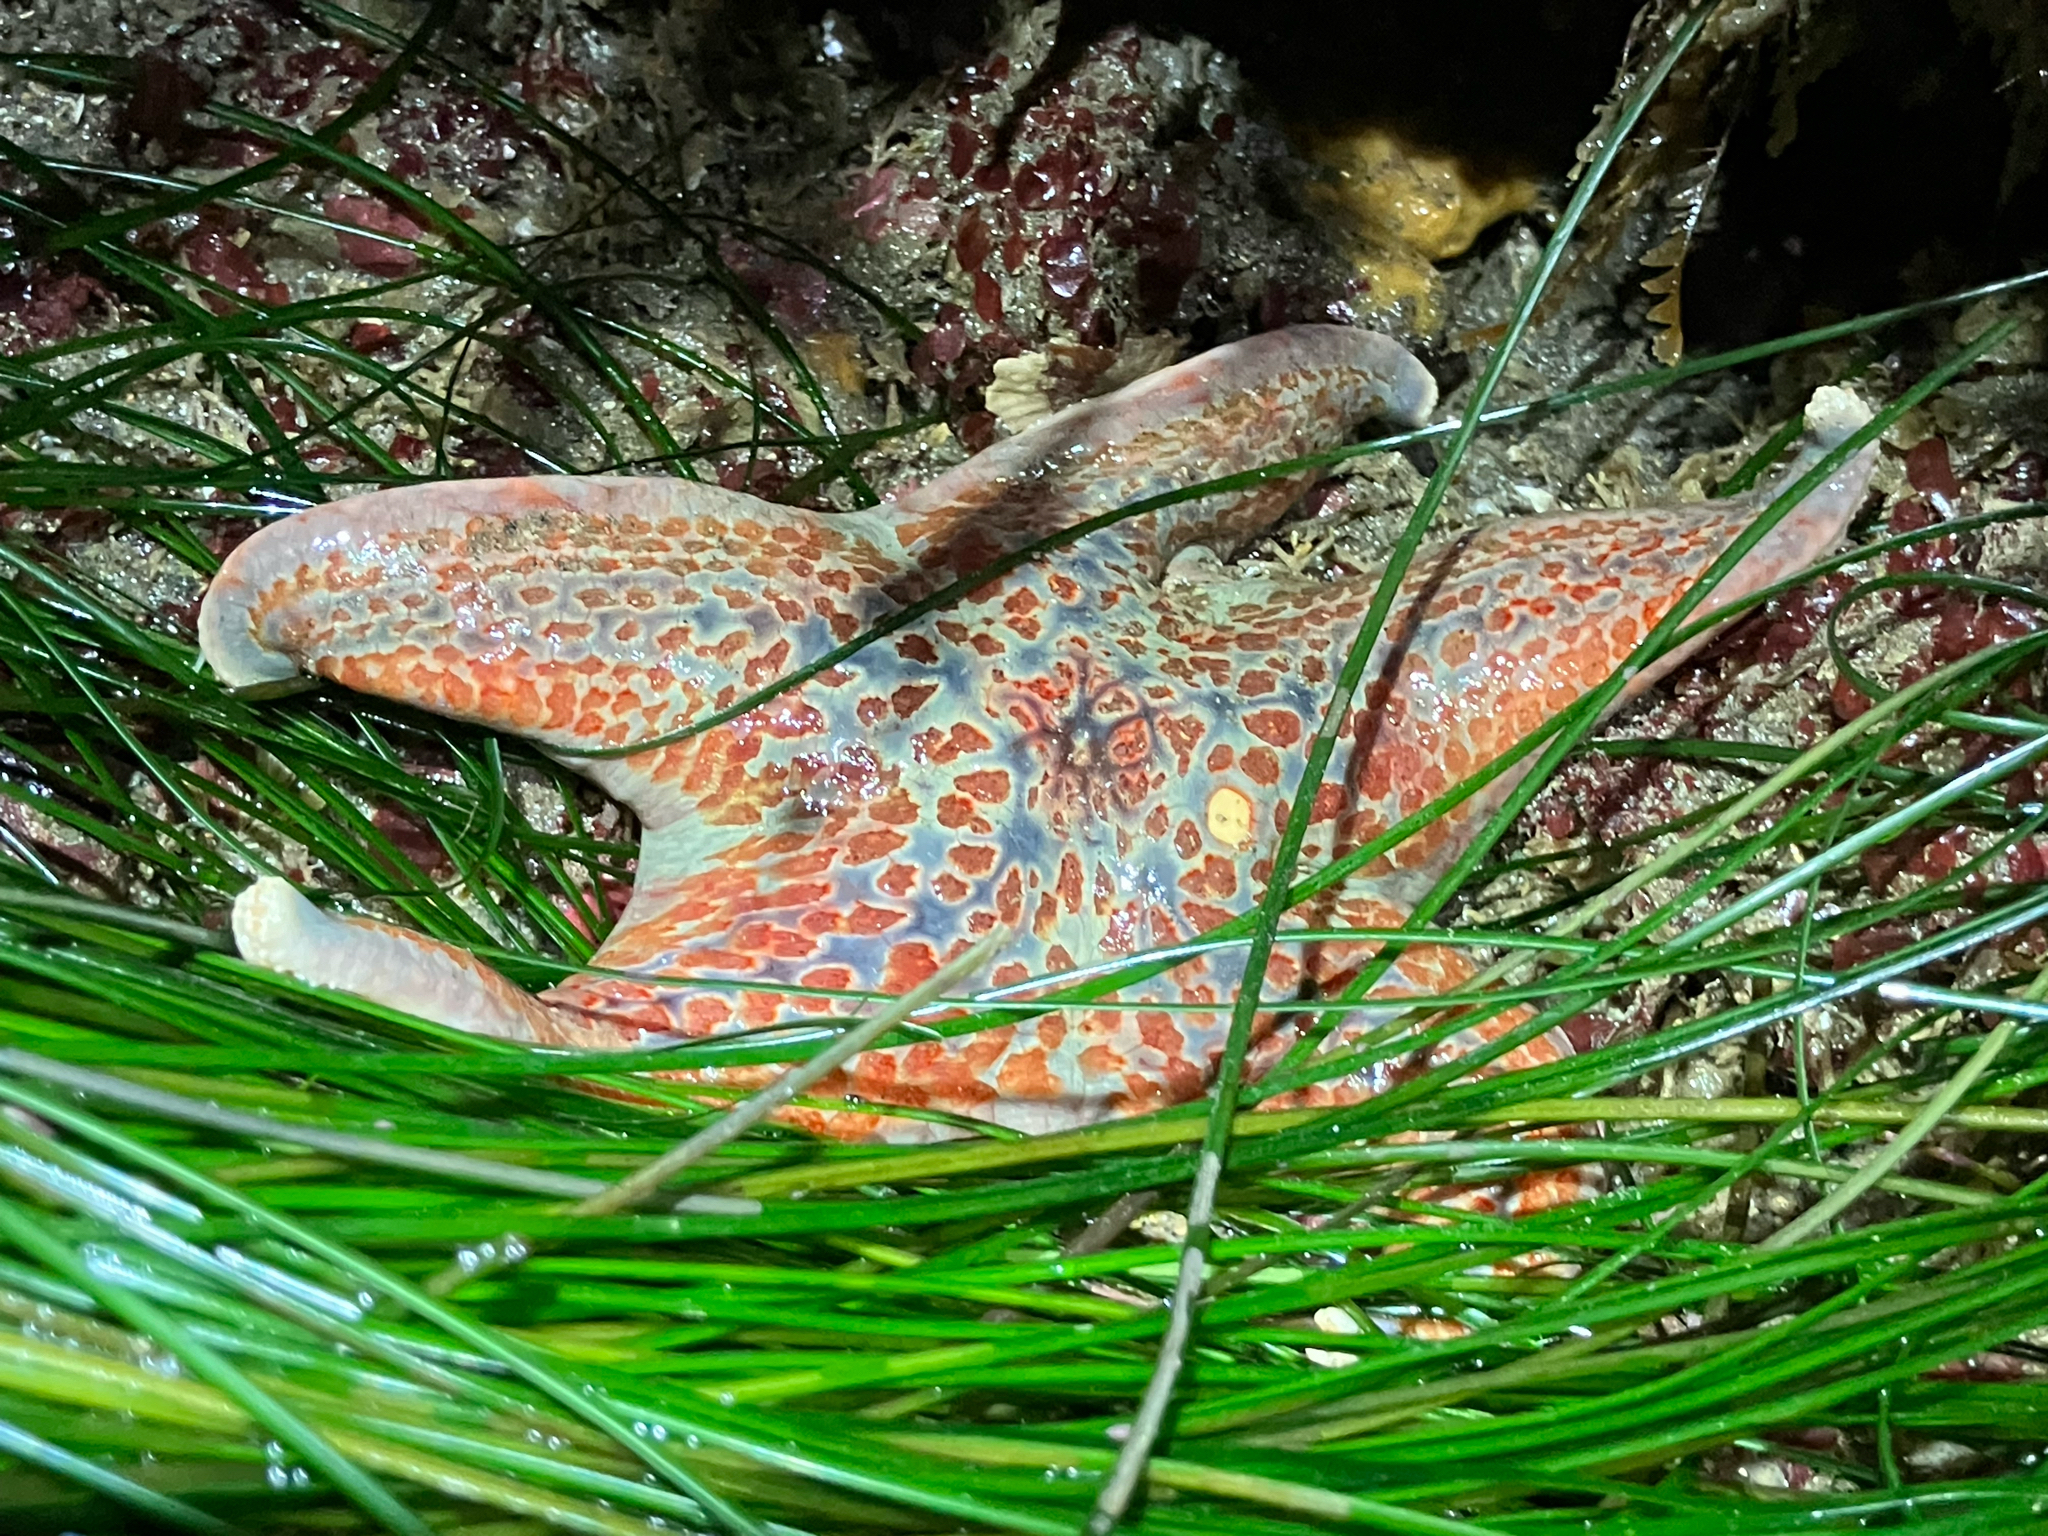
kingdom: Animalia
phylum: Echinodermata
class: Asteroidea
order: Valvatida
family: Asteropseidae
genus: Dermasterias
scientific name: Dermasterias imbricata
